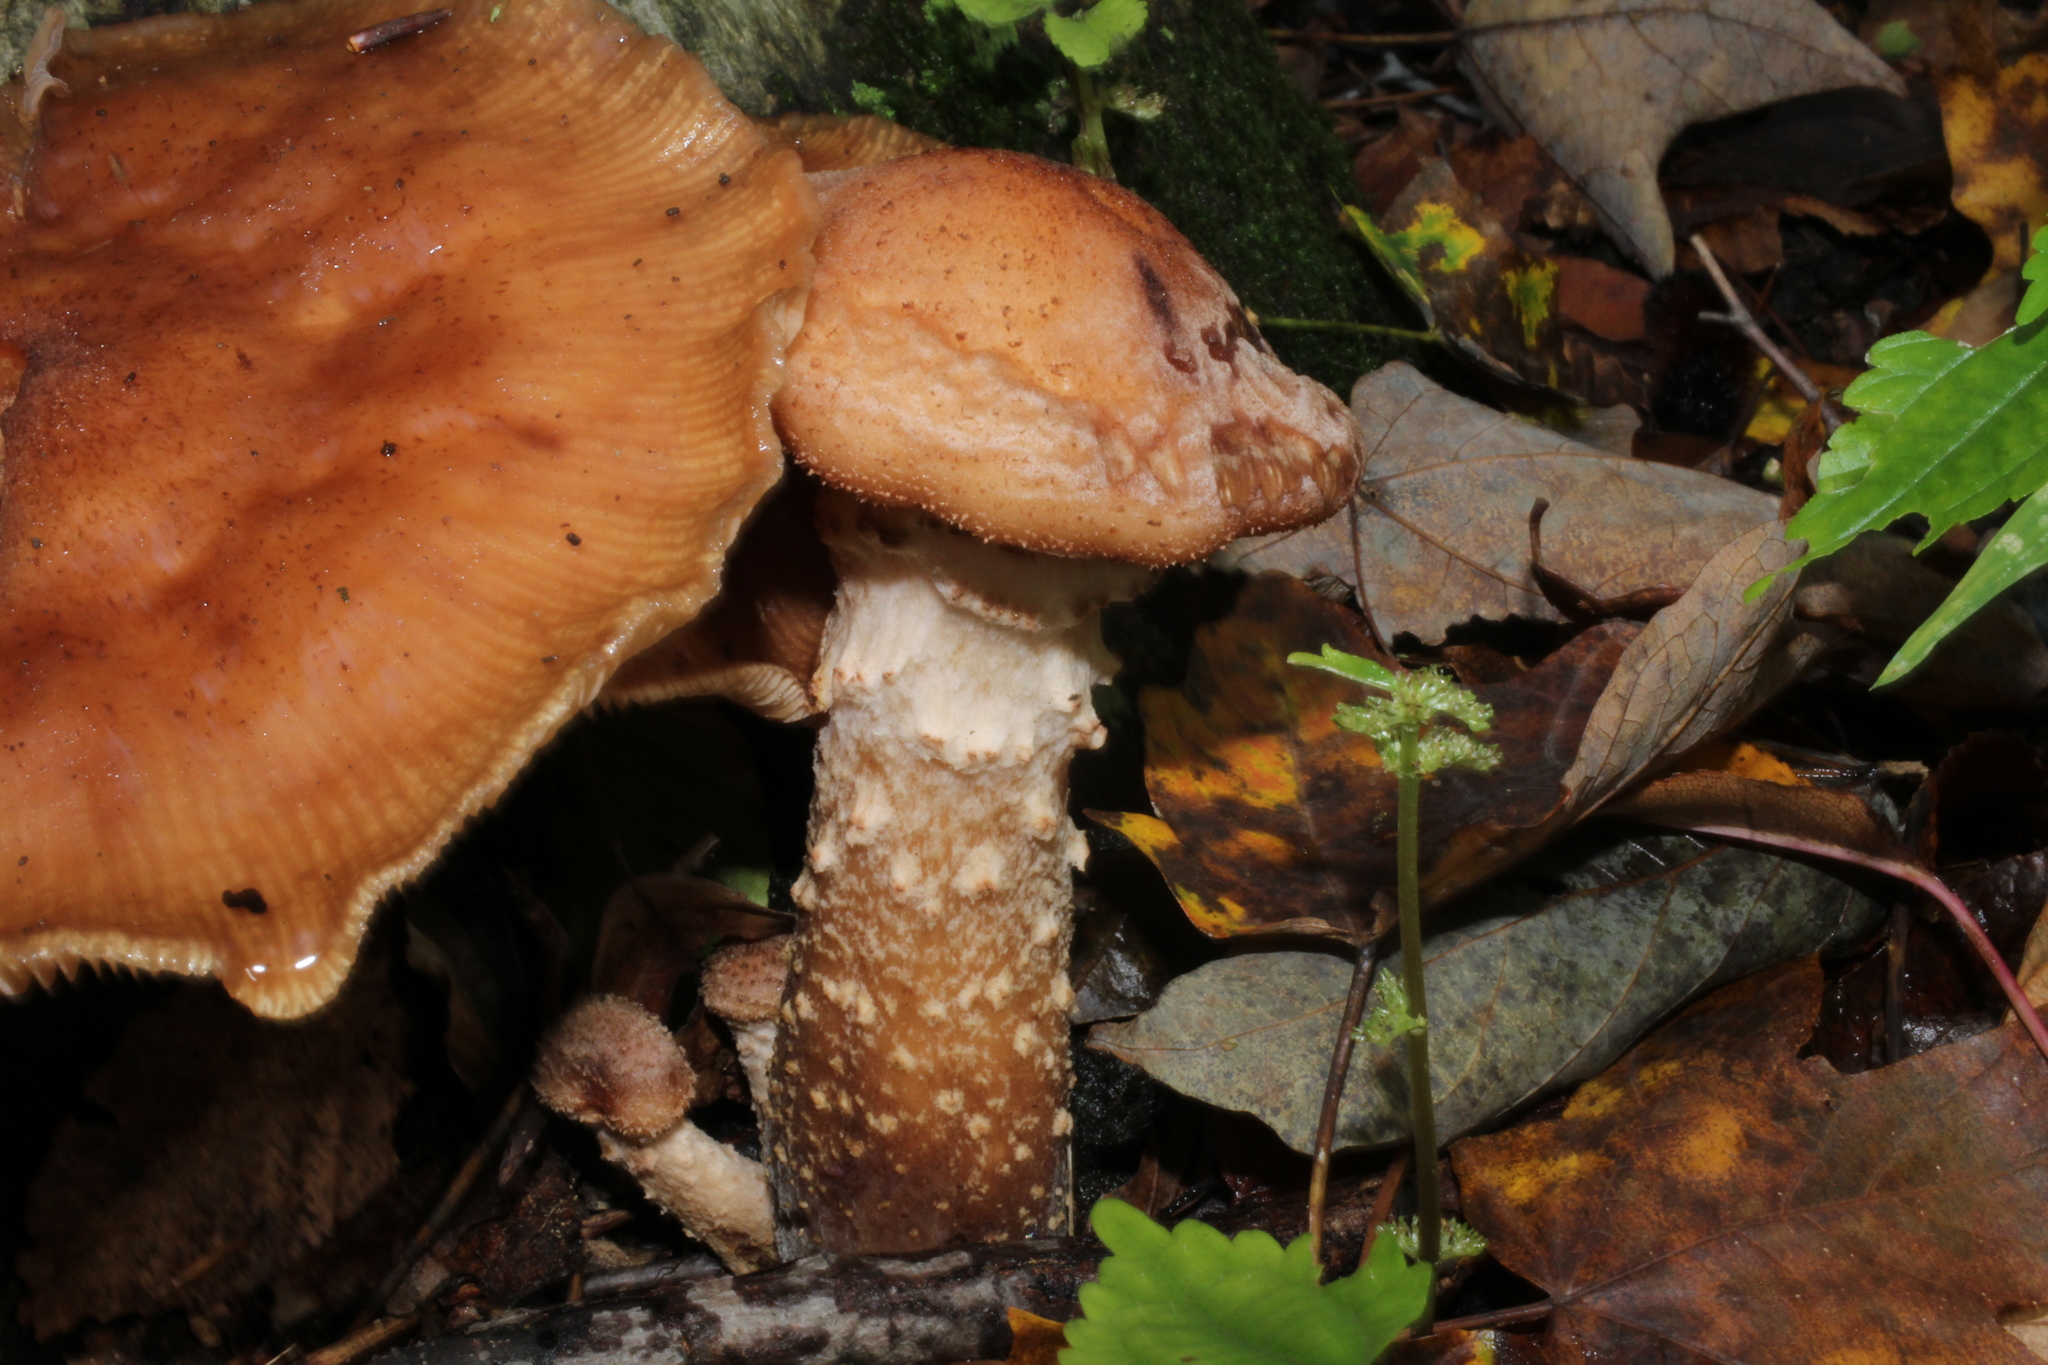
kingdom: Fungi
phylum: Basidiomycota
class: Agaricomycetes
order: Agaricales
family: Physalacriaceae
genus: Armillaria
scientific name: Armillaria mellea
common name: Honey fungus
